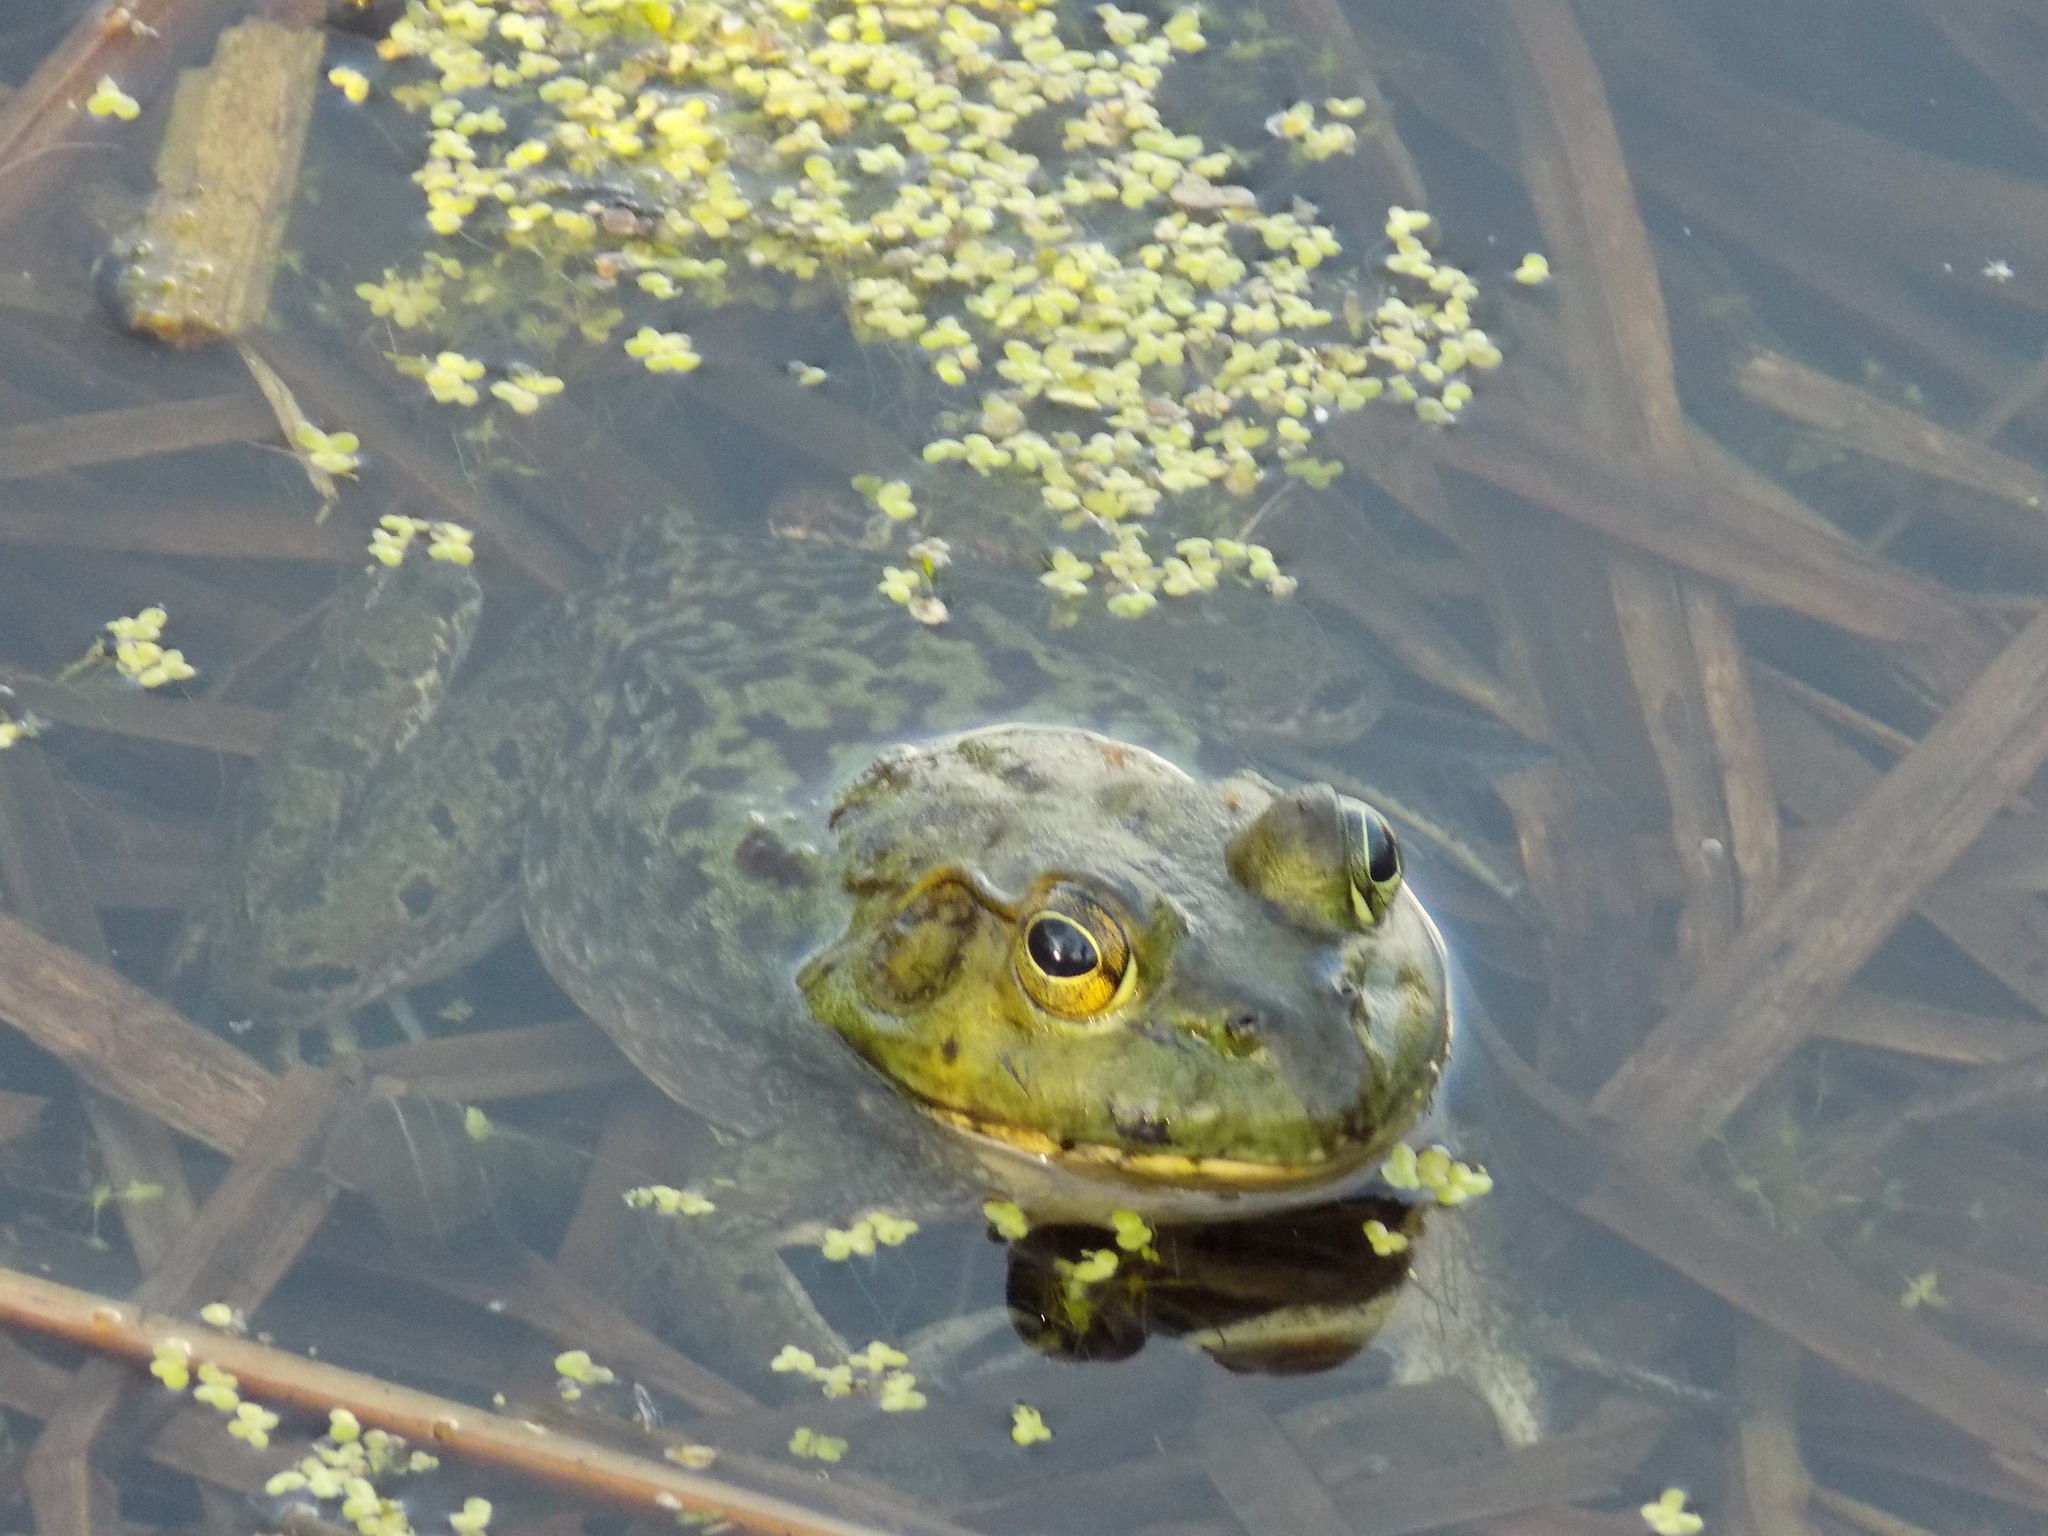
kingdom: Animalia
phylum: Chordata
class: Amphibia
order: Anura
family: Ranidae
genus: Lithobates
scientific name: Lithobates catesbeianus
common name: American bullfrog
